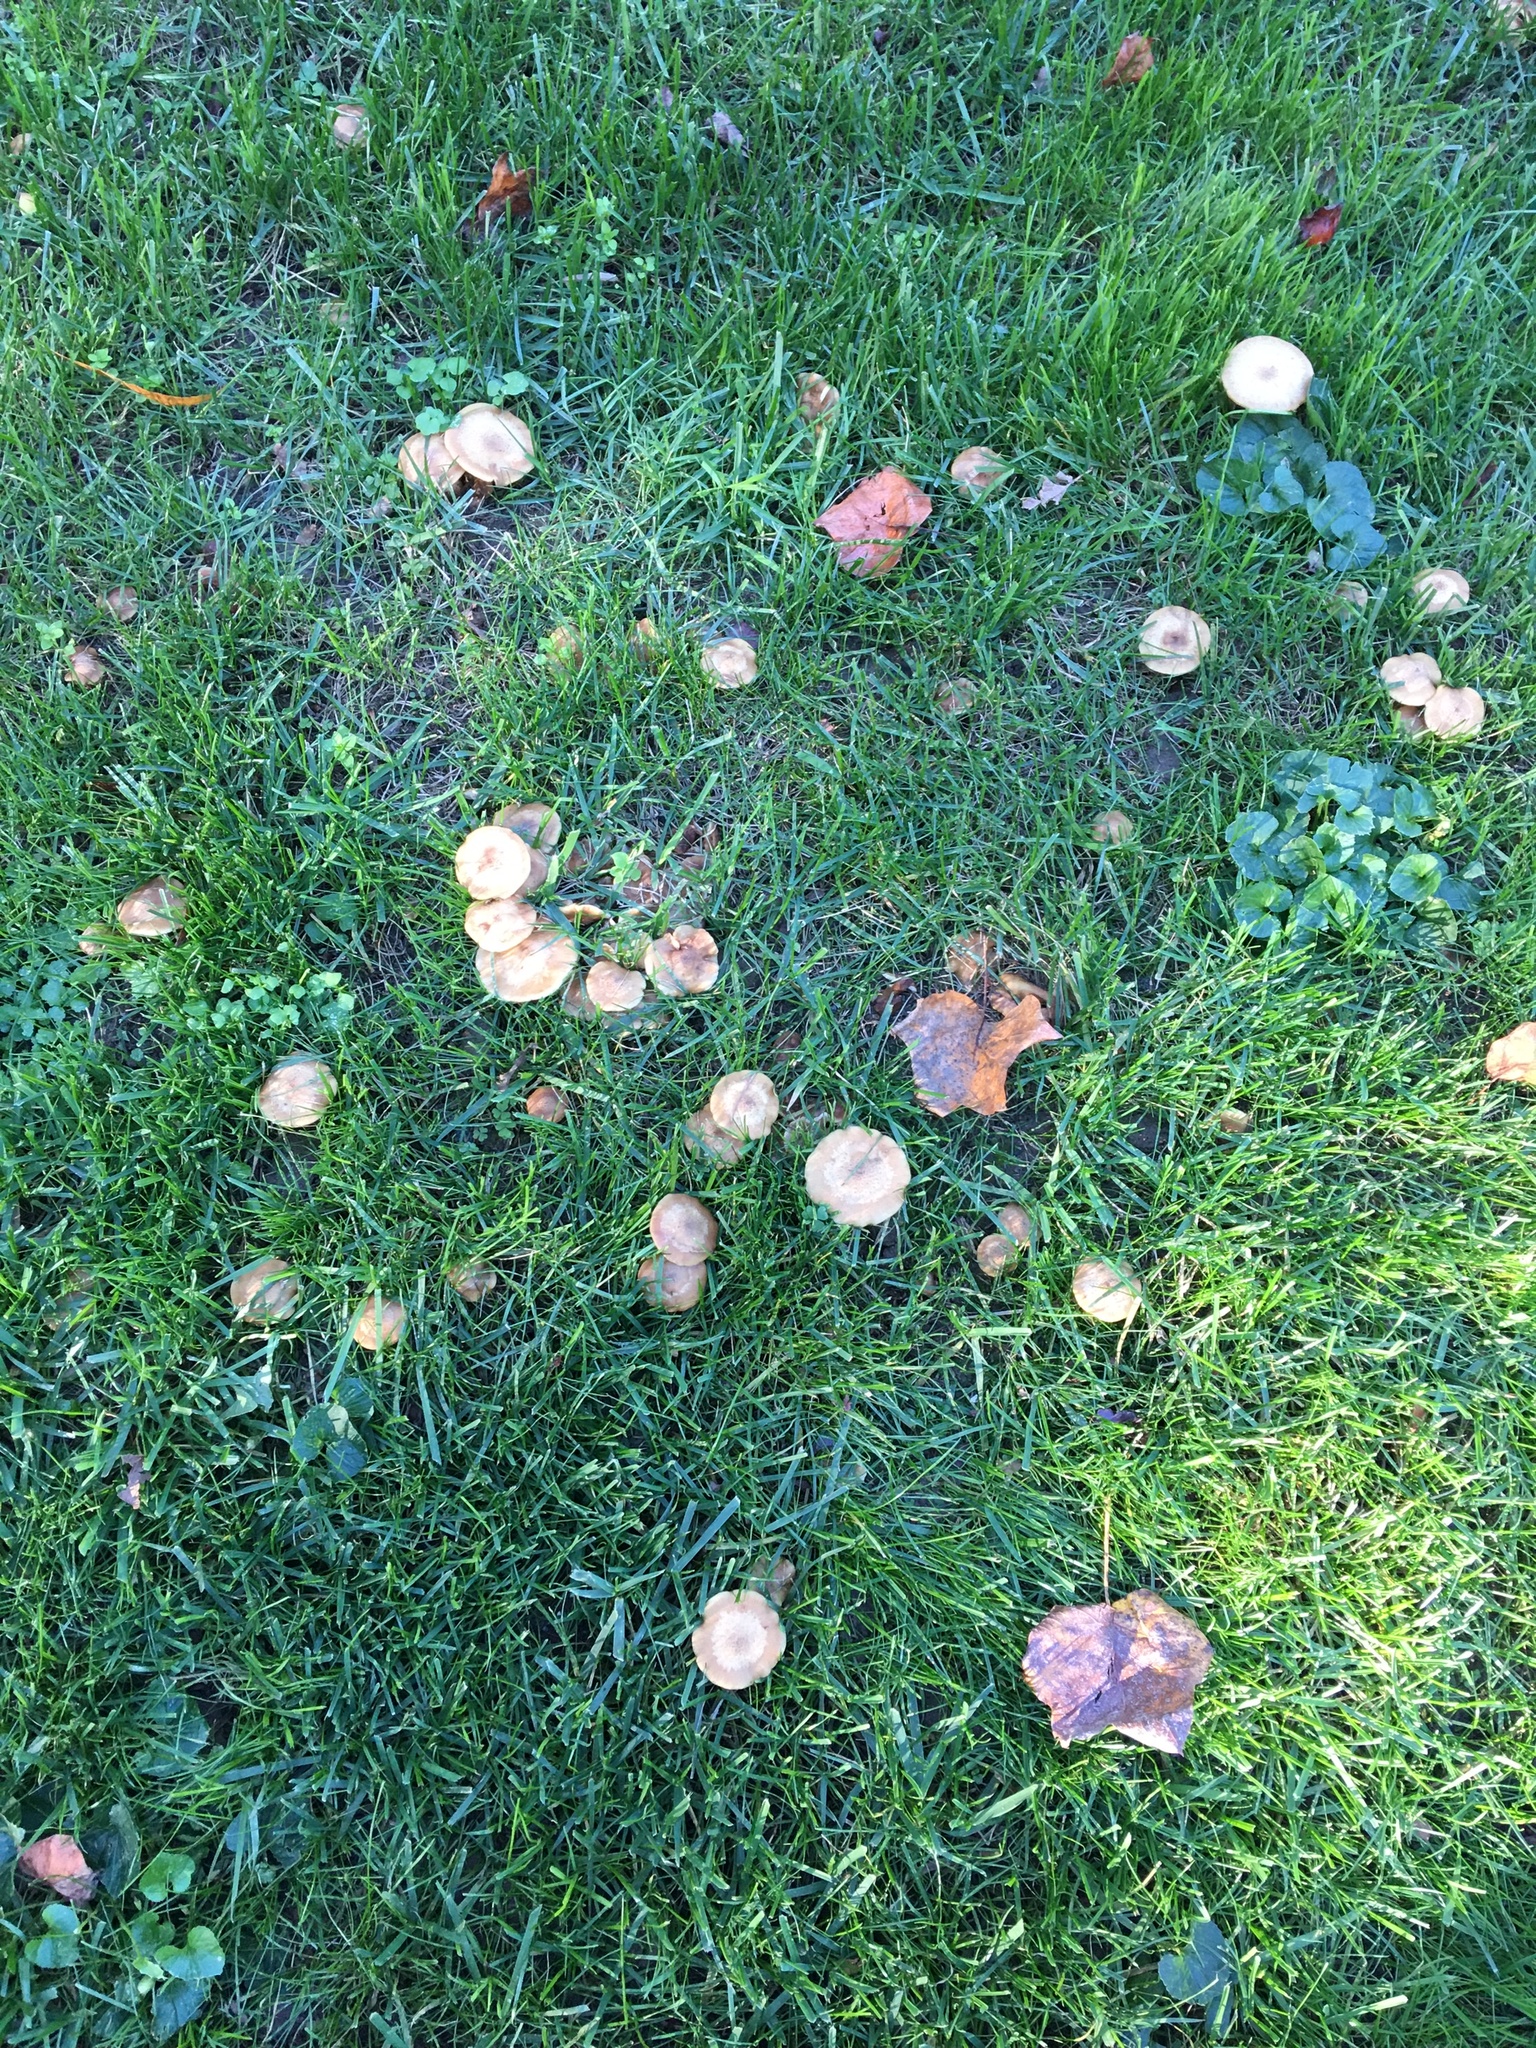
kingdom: Fungi
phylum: Basidiomycota
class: Agaricomycetes
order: Agaricales
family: Physalacriaceae
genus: Armillaria
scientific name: Armillaria gallica
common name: Bulbous honey fungus
